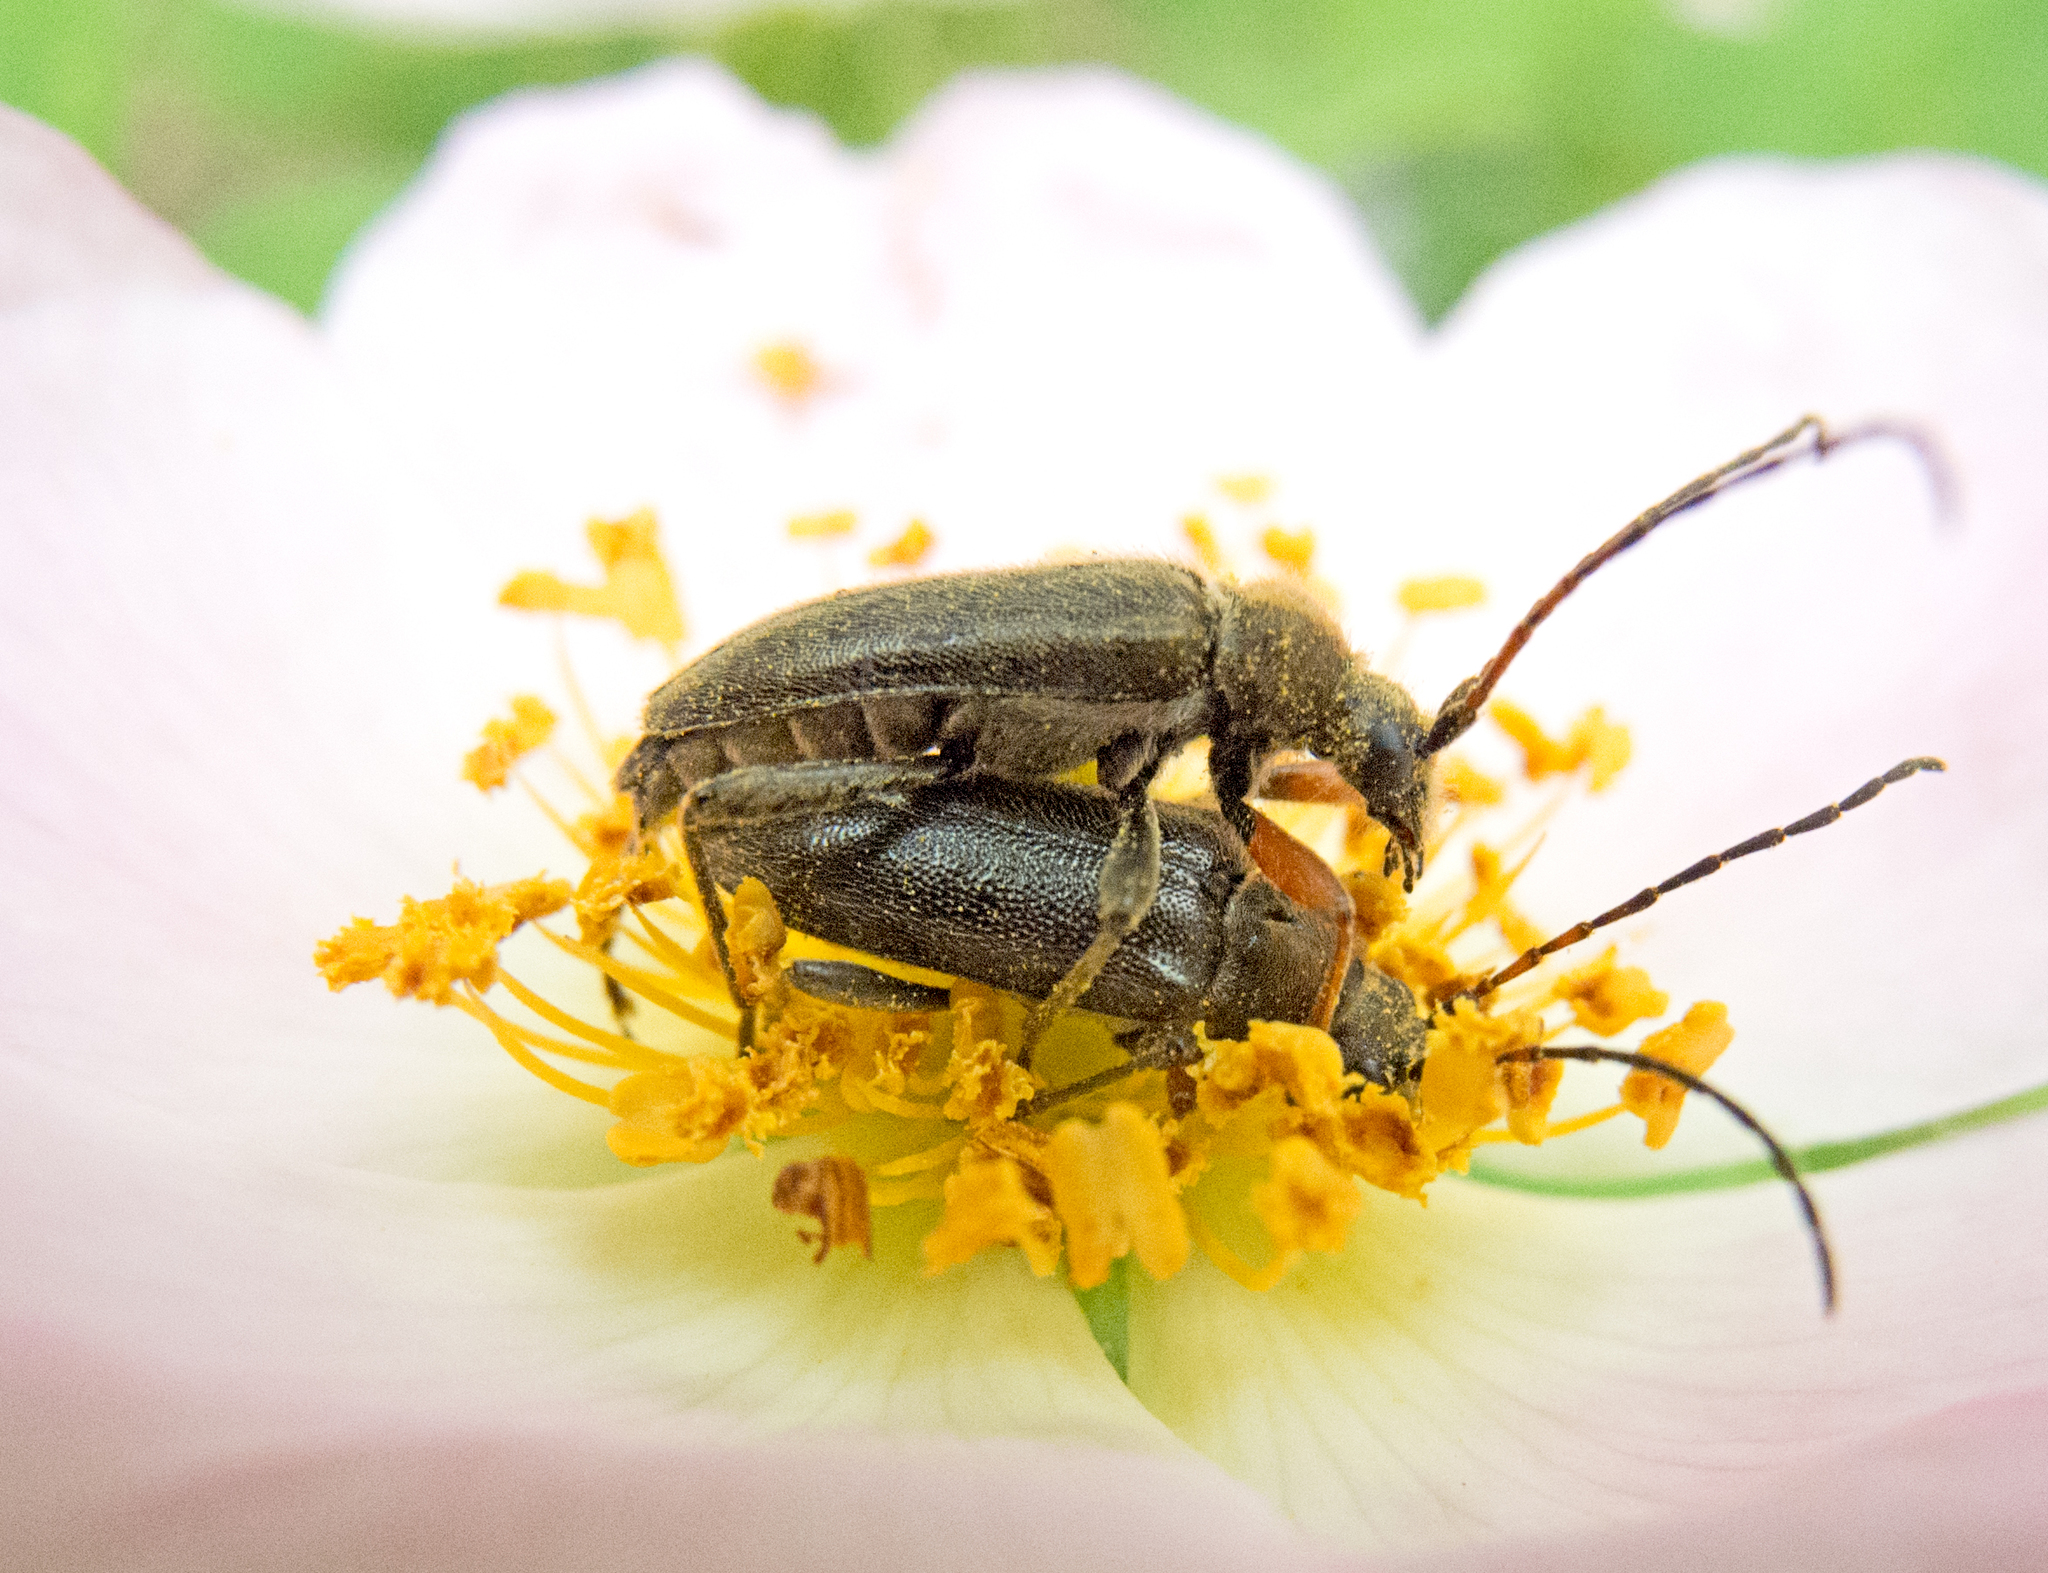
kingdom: Animalia
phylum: Arthropoda
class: Insecta
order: Coleoptera
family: Cerambycidae
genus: Cortodera
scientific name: Cortodera flavimana
